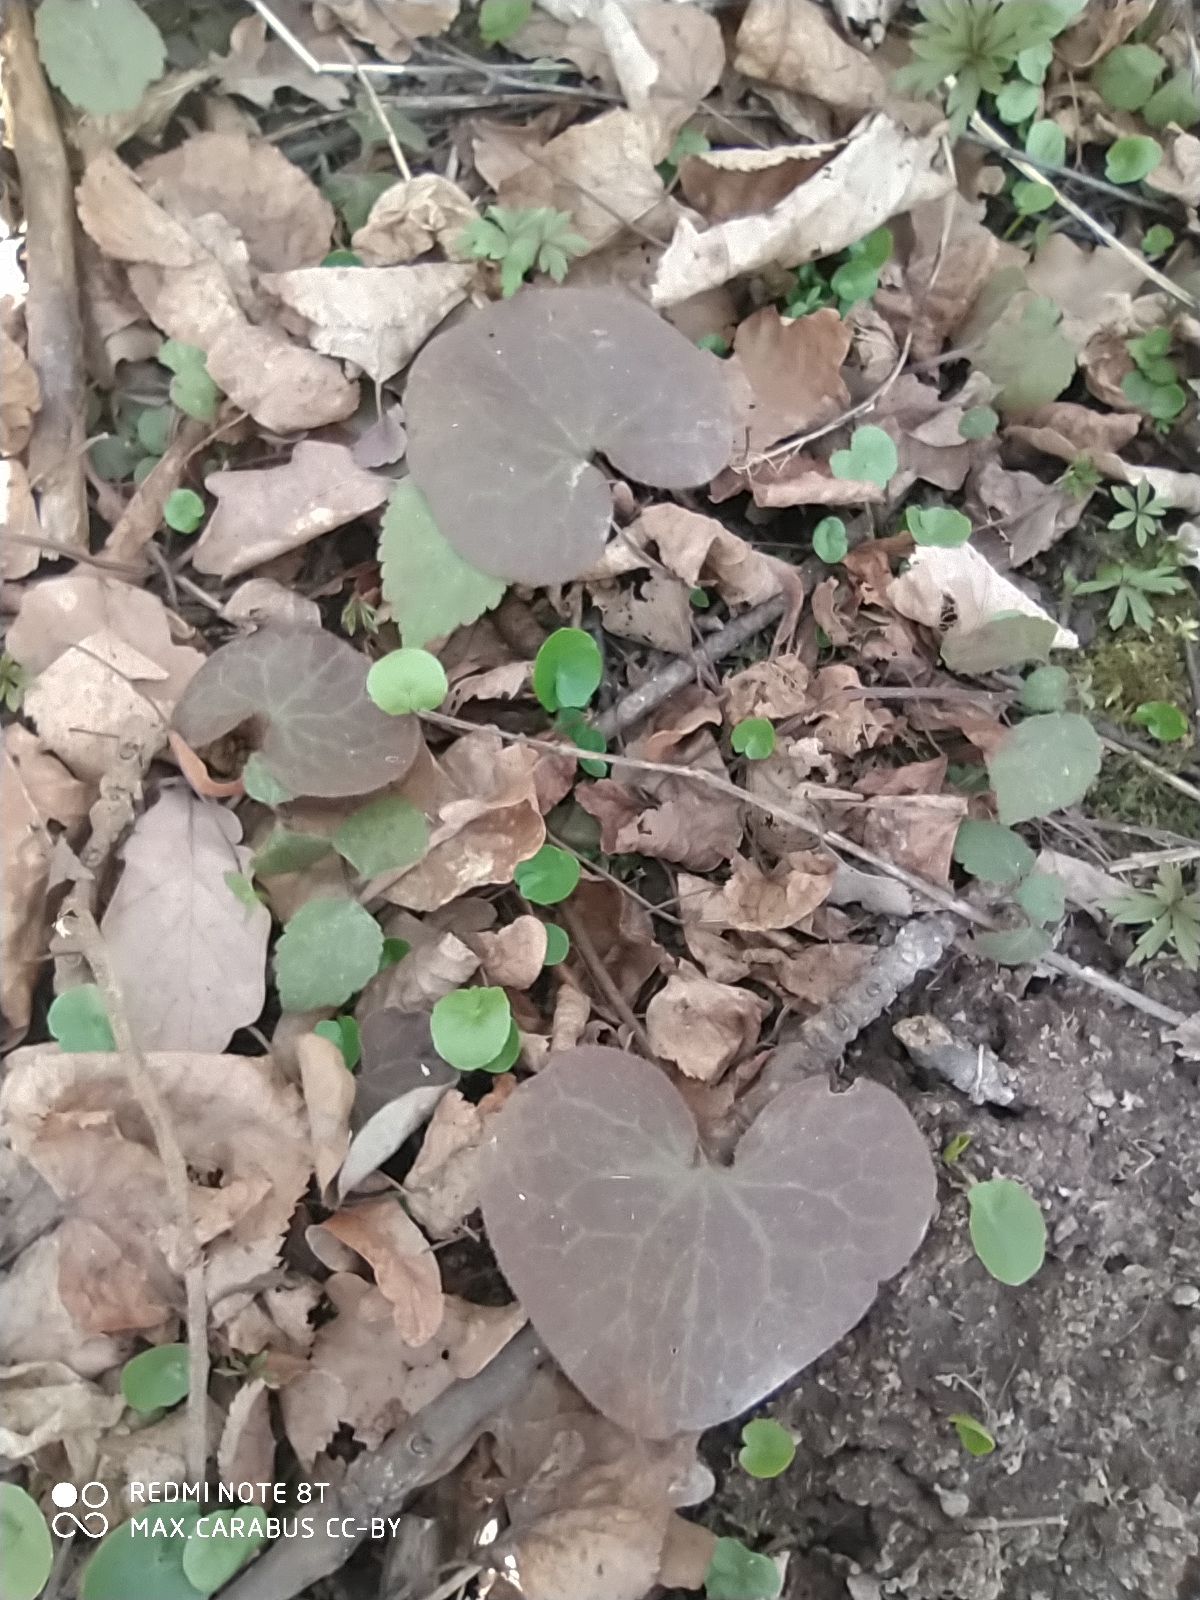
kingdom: Plantae
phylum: Tracheophyta
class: Magnoliopsida
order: Piperales
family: Aristolochiaceae
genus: Asarum
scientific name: Asarum europaeum
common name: Asarabacca
